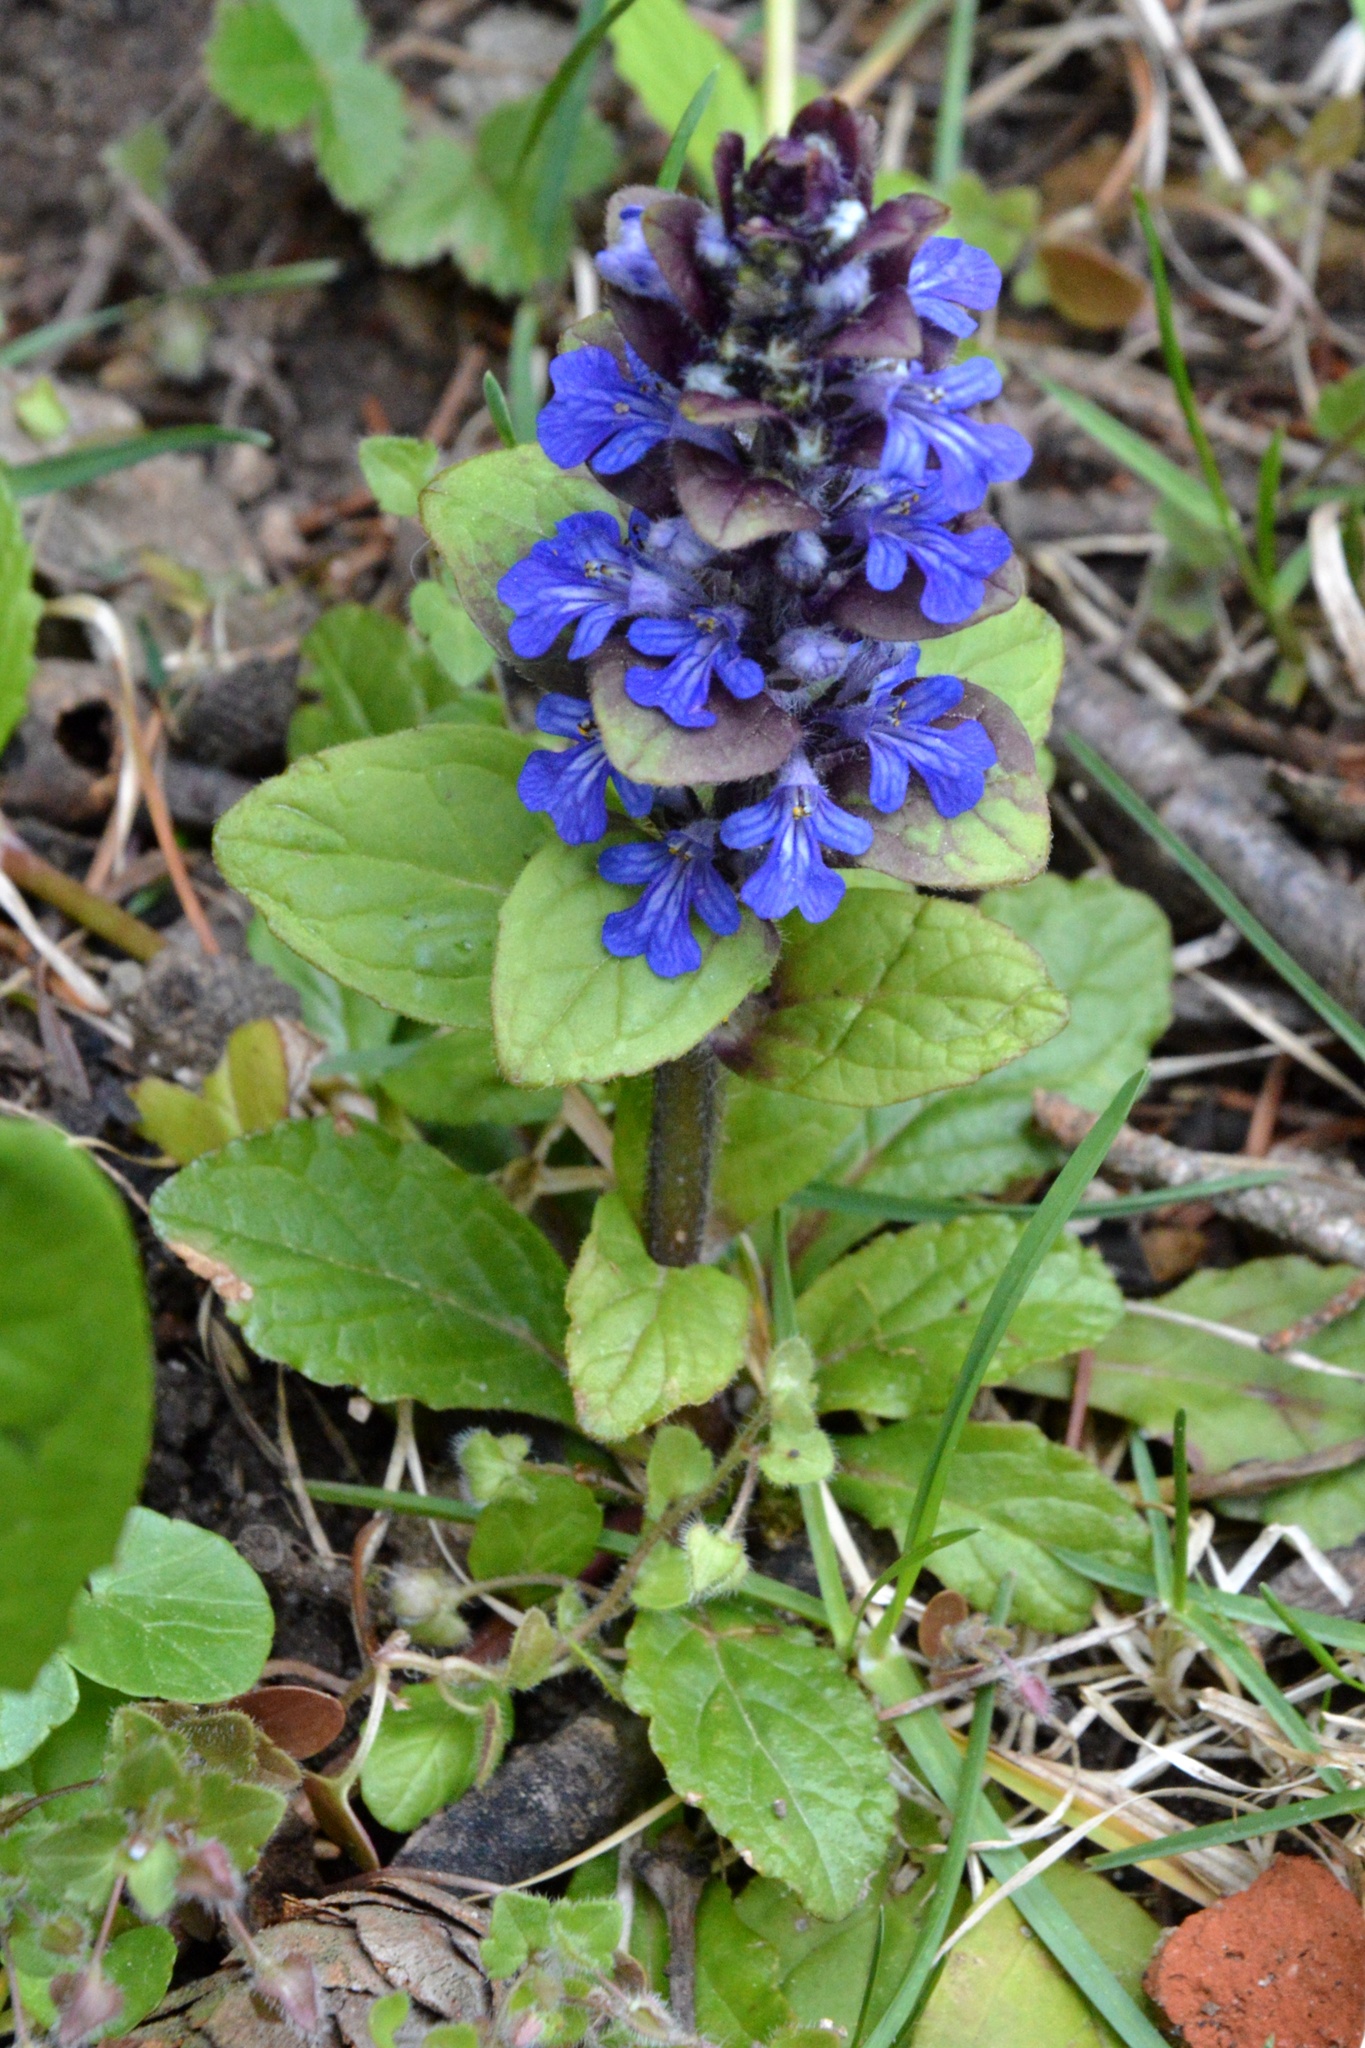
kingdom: Plantae
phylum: Tracheophyta
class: Magnoliopsida
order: Lamiales
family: Lamiaceae
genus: Ajuga
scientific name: Ajuga reptans
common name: Bugle
